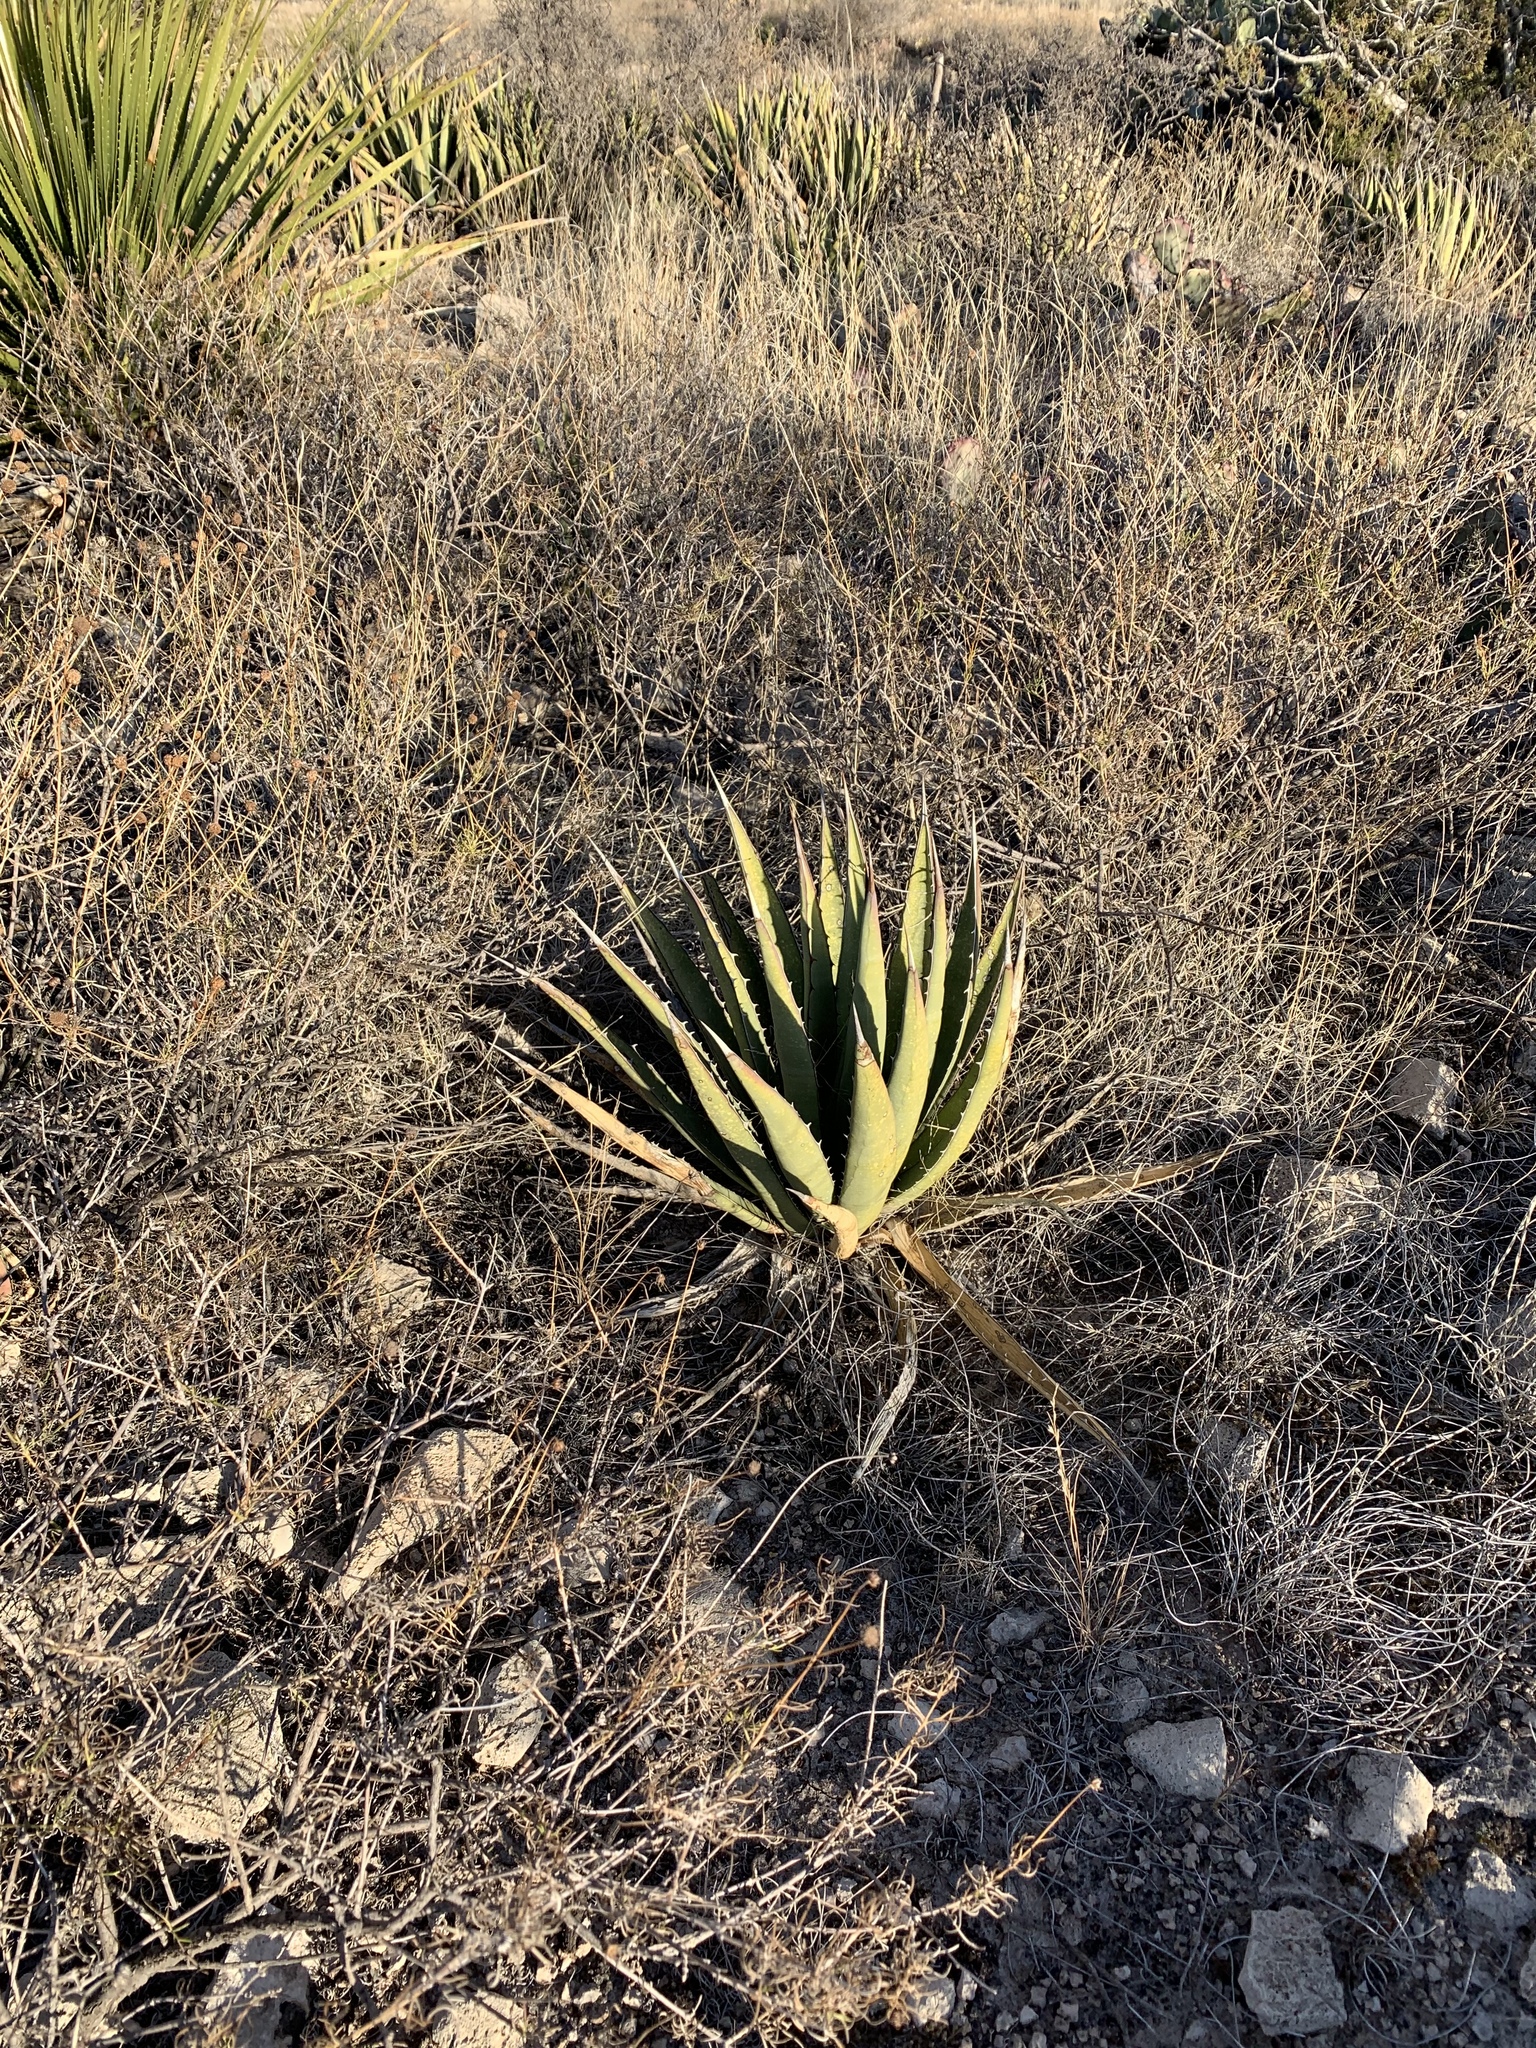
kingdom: Plantae
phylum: Tracheophyta
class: Liliopsida
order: Asparagales
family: Asparagaceae
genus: Agave
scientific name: Agave lechuguilla
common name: Lecheguilla agave
